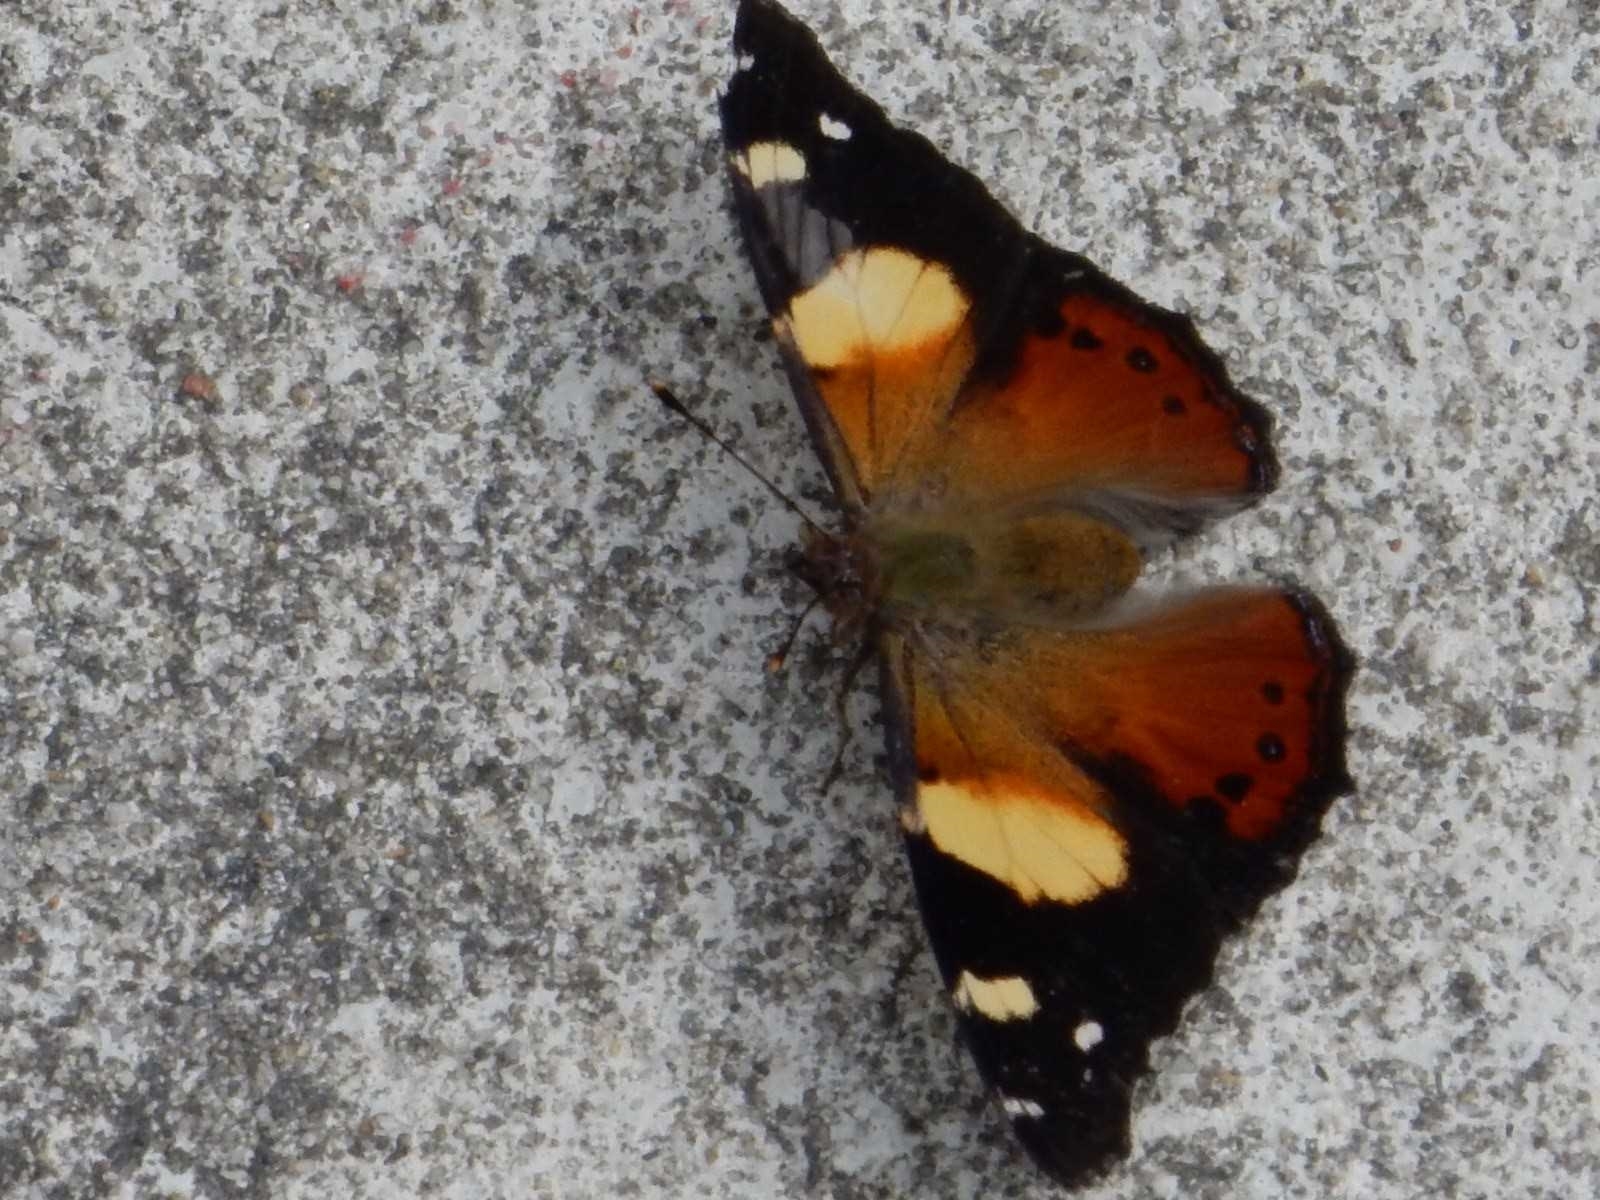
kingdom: Animalia
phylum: Arthropoda
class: Insecta
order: Lepidoptera
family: Nymphalidae
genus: Vanessa
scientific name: Vanessa itea
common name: Yellow admiral
